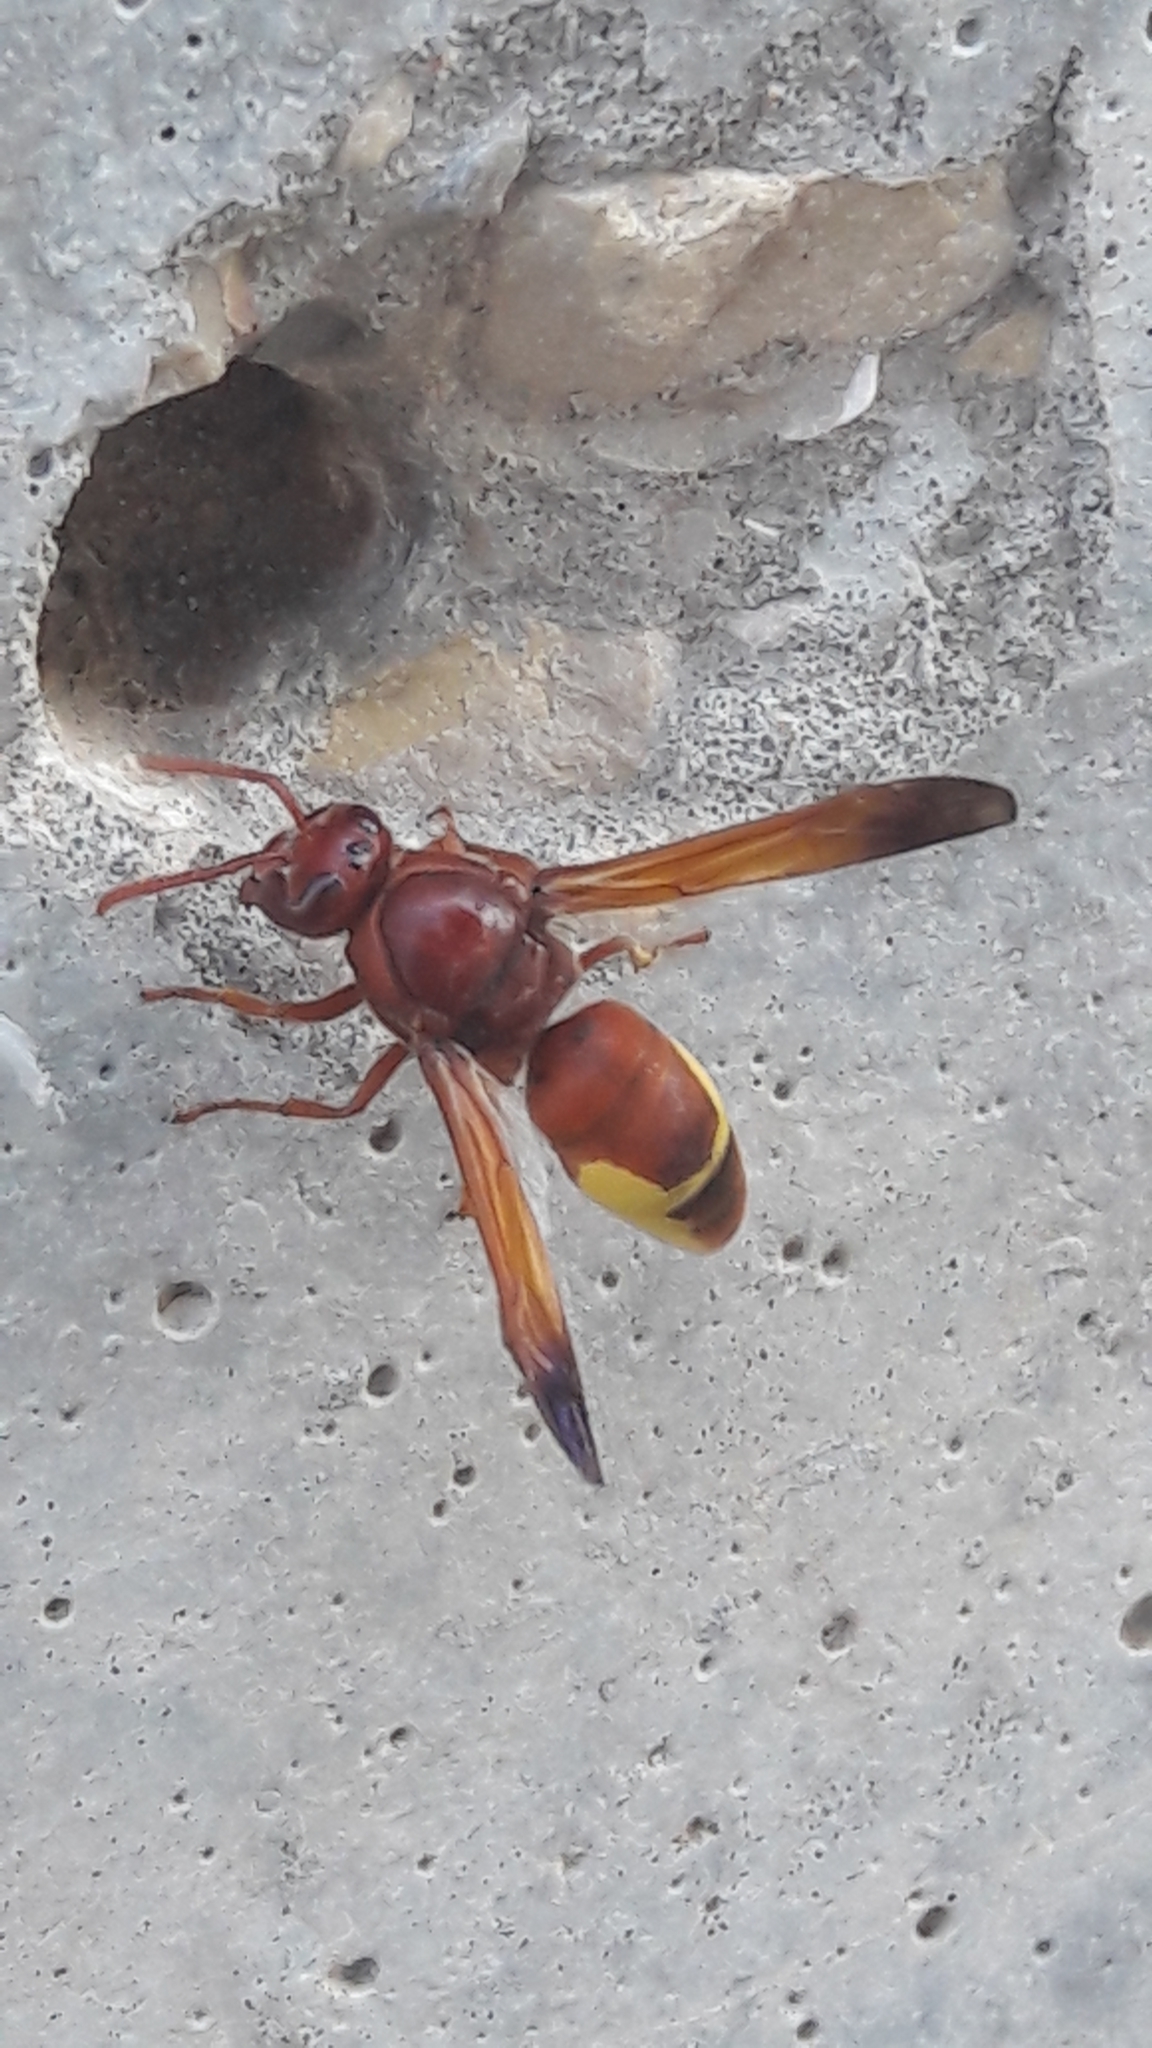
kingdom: Animalia
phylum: Arthropoda
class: Insecta
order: Hymenoptera
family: Eumenidae
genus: Rhynchium
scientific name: Rhynchium oculatum
